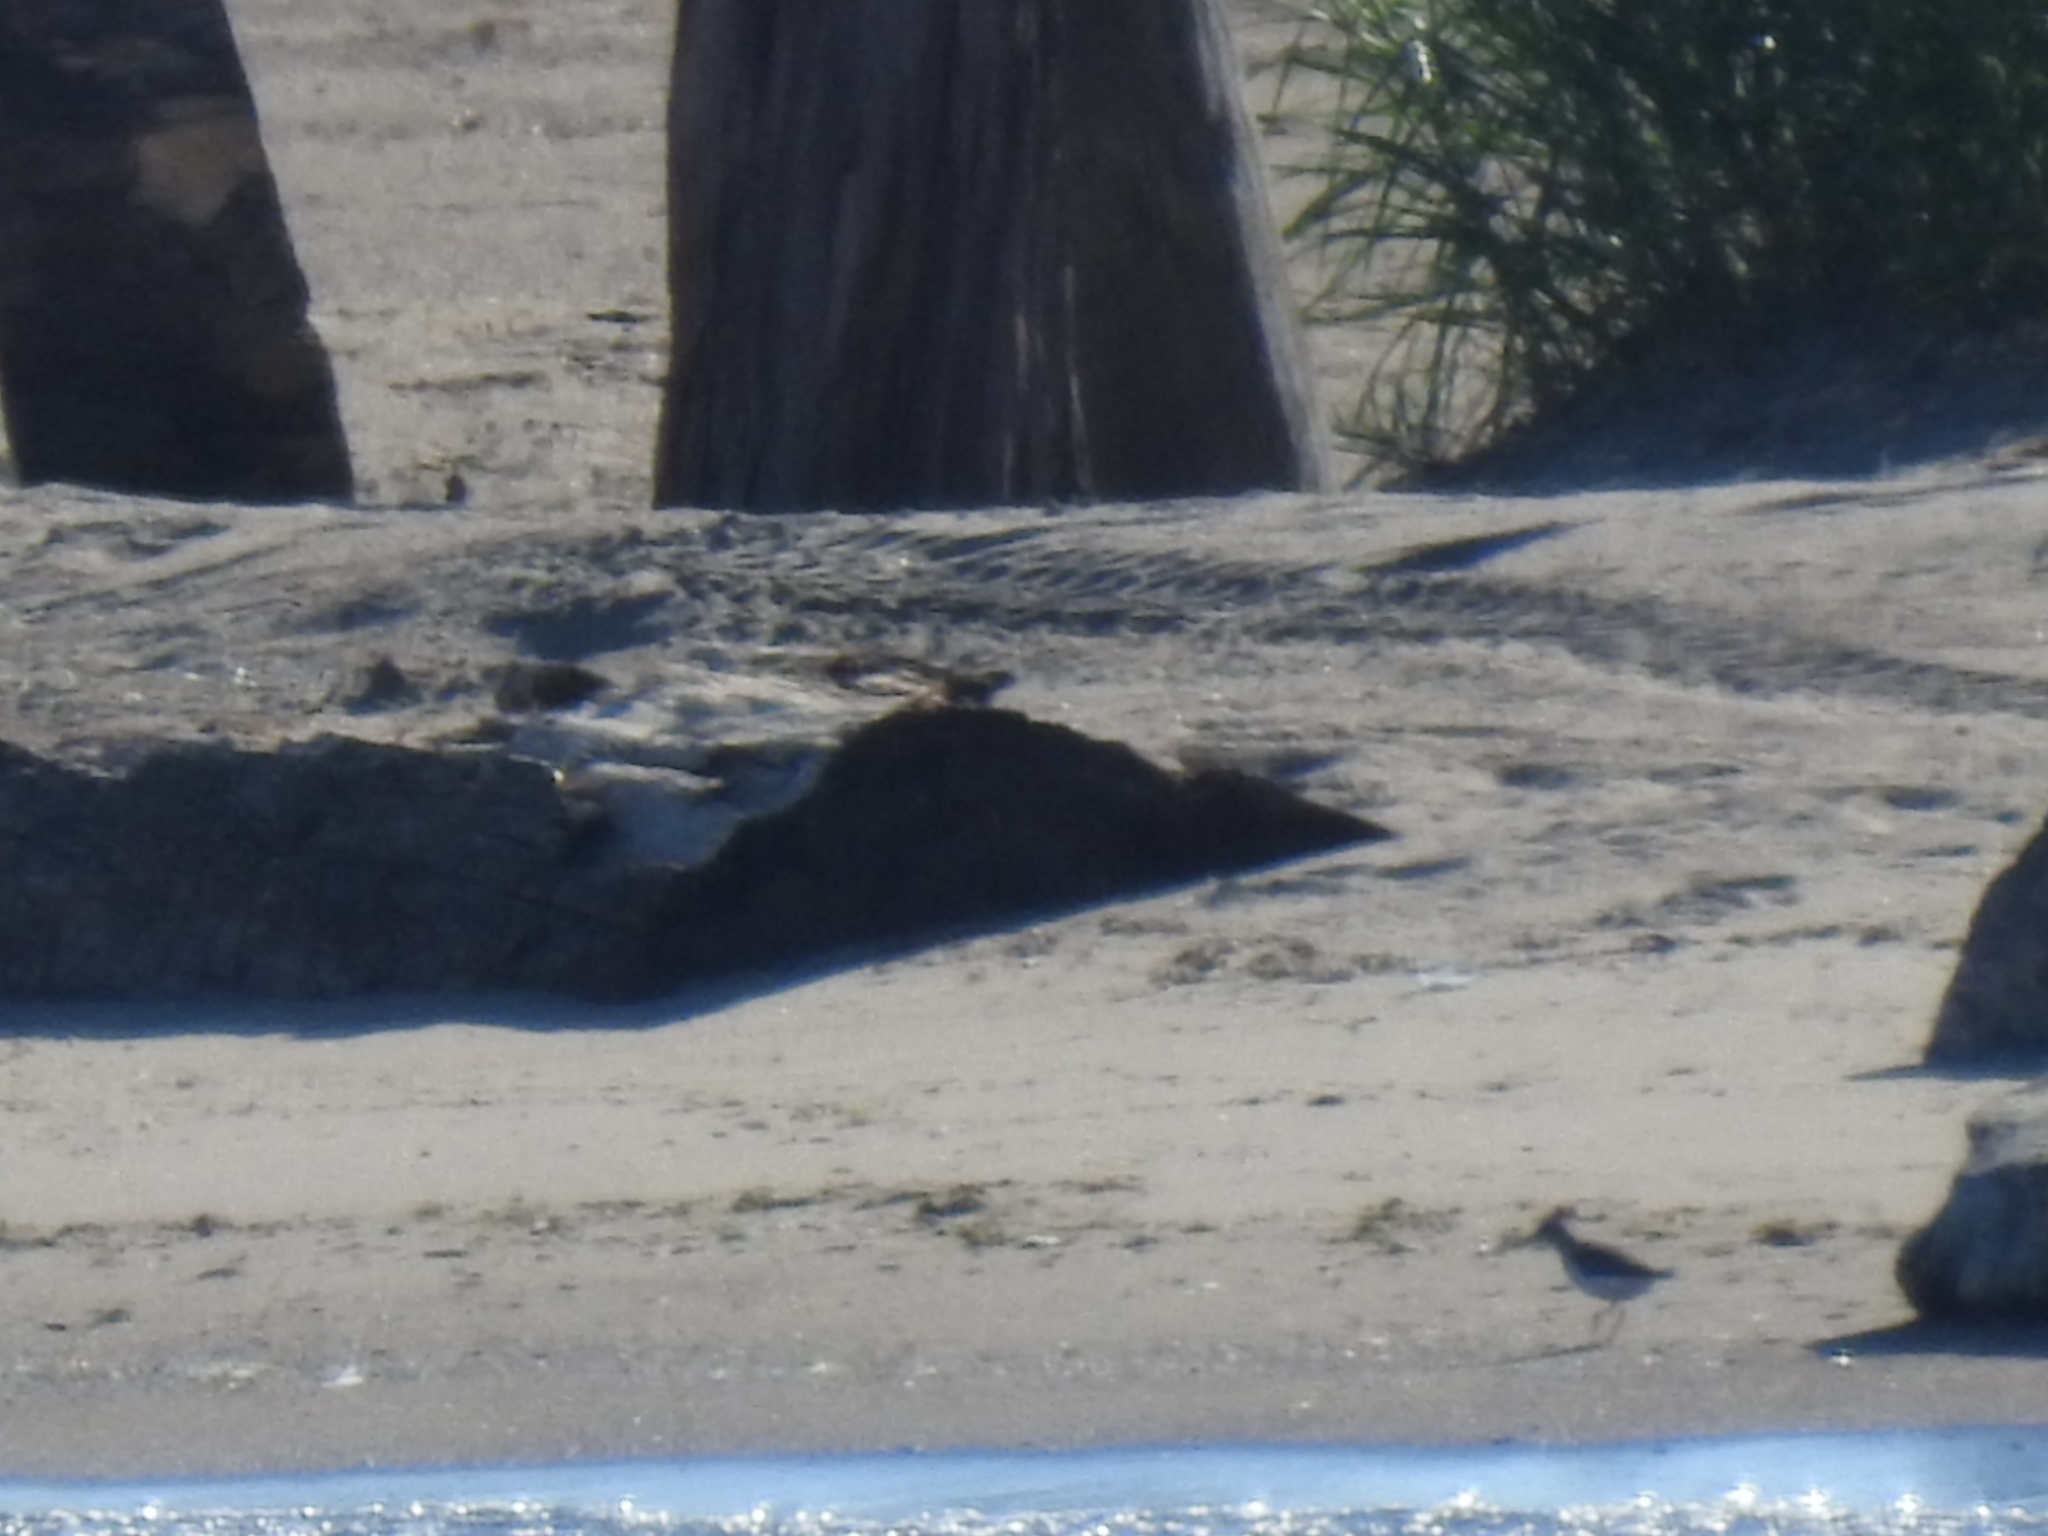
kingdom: Animalia
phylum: Chordata
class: Aves
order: Charadriiformes
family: Scolopacidae
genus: Actitis
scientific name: Actitis macularius
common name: Spotted sandpiper
